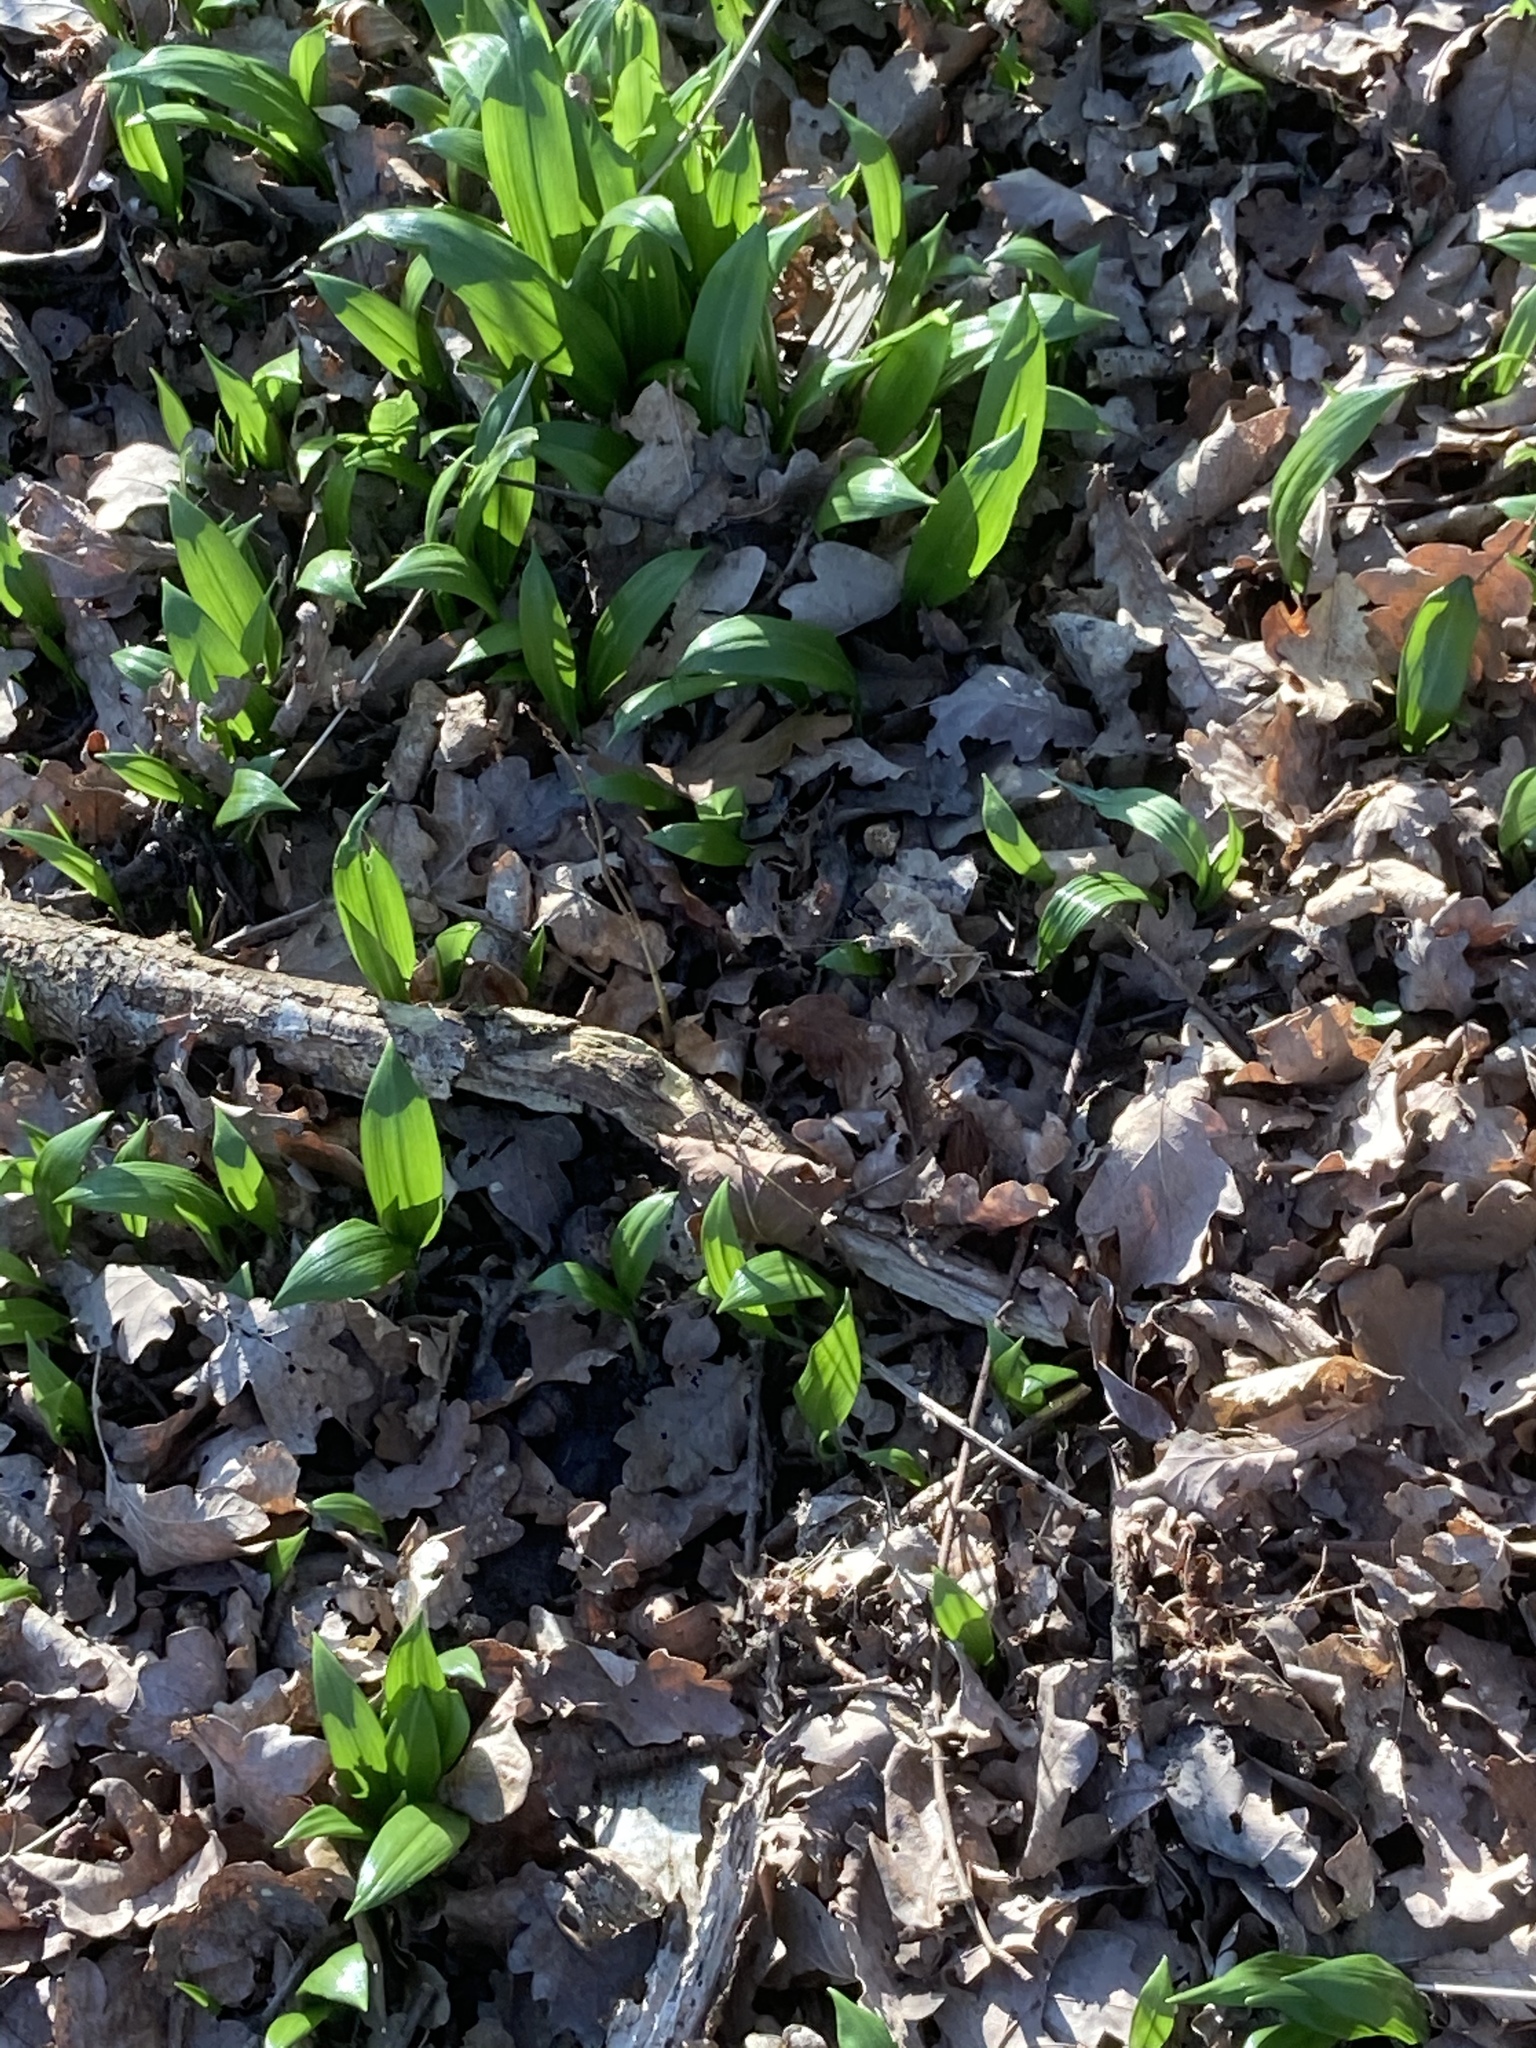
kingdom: Plantae
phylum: Tracheophyta
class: Liliopsida
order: Asparagales
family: Amaryllidaceae
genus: Allium
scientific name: Allium ursinum
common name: Ramsons
